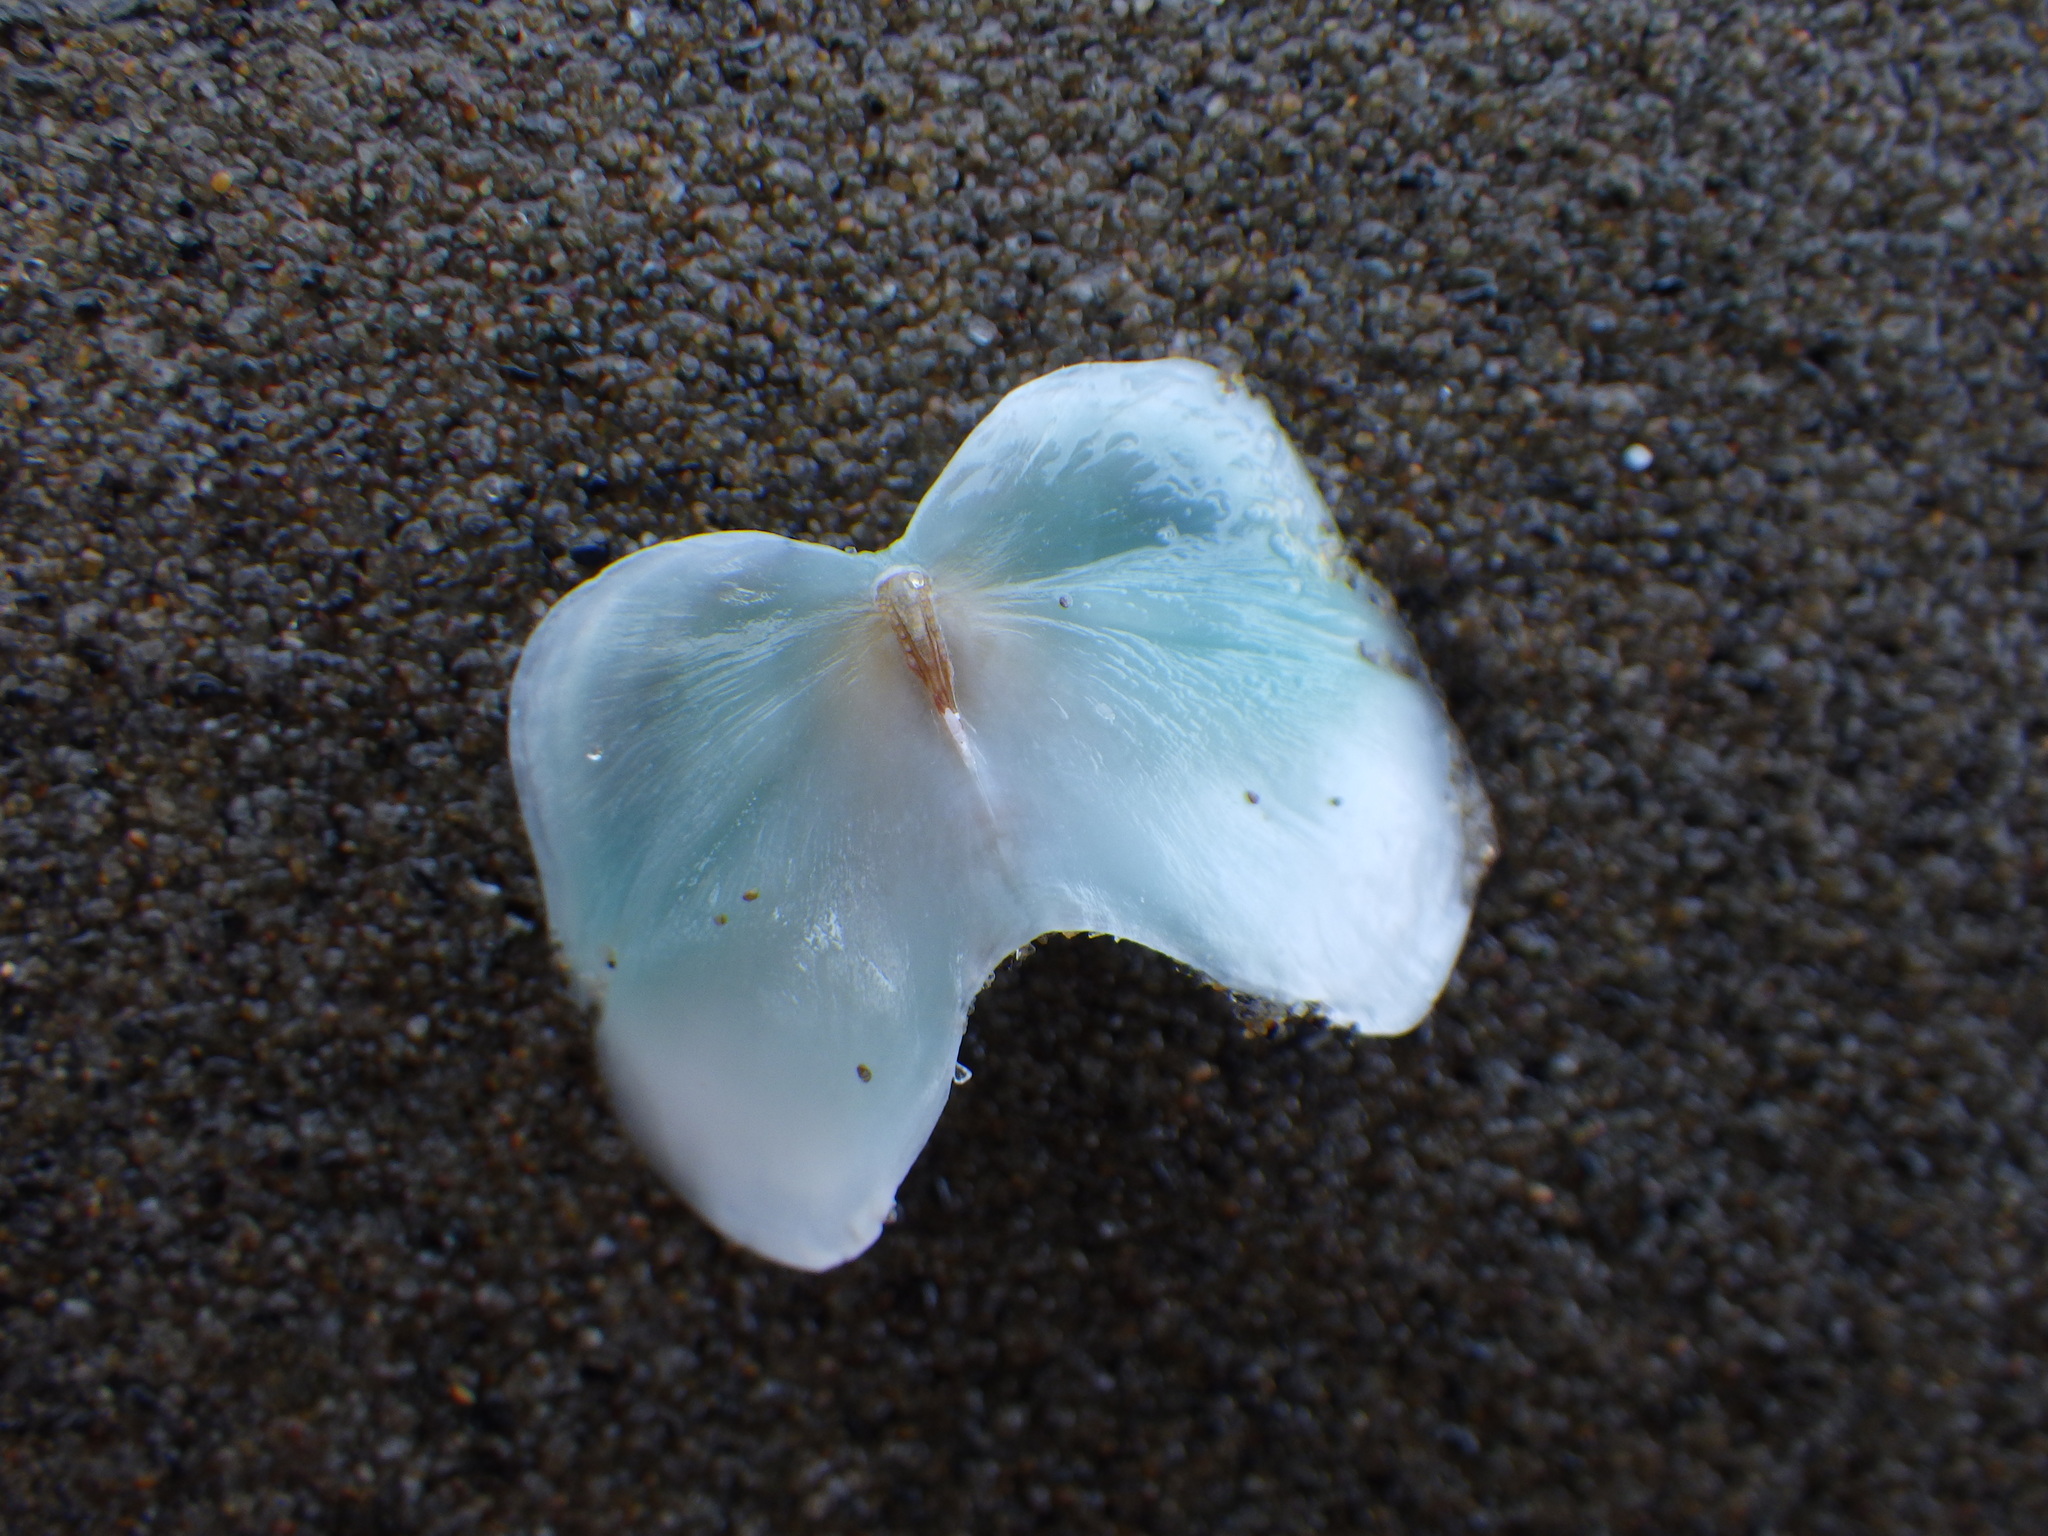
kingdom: Animalia
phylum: Mollusca
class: Polyplacophora
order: Chitonida
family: Acanthochitonidae
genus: Cryptoconchus
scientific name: Cryptoconchus porosus
